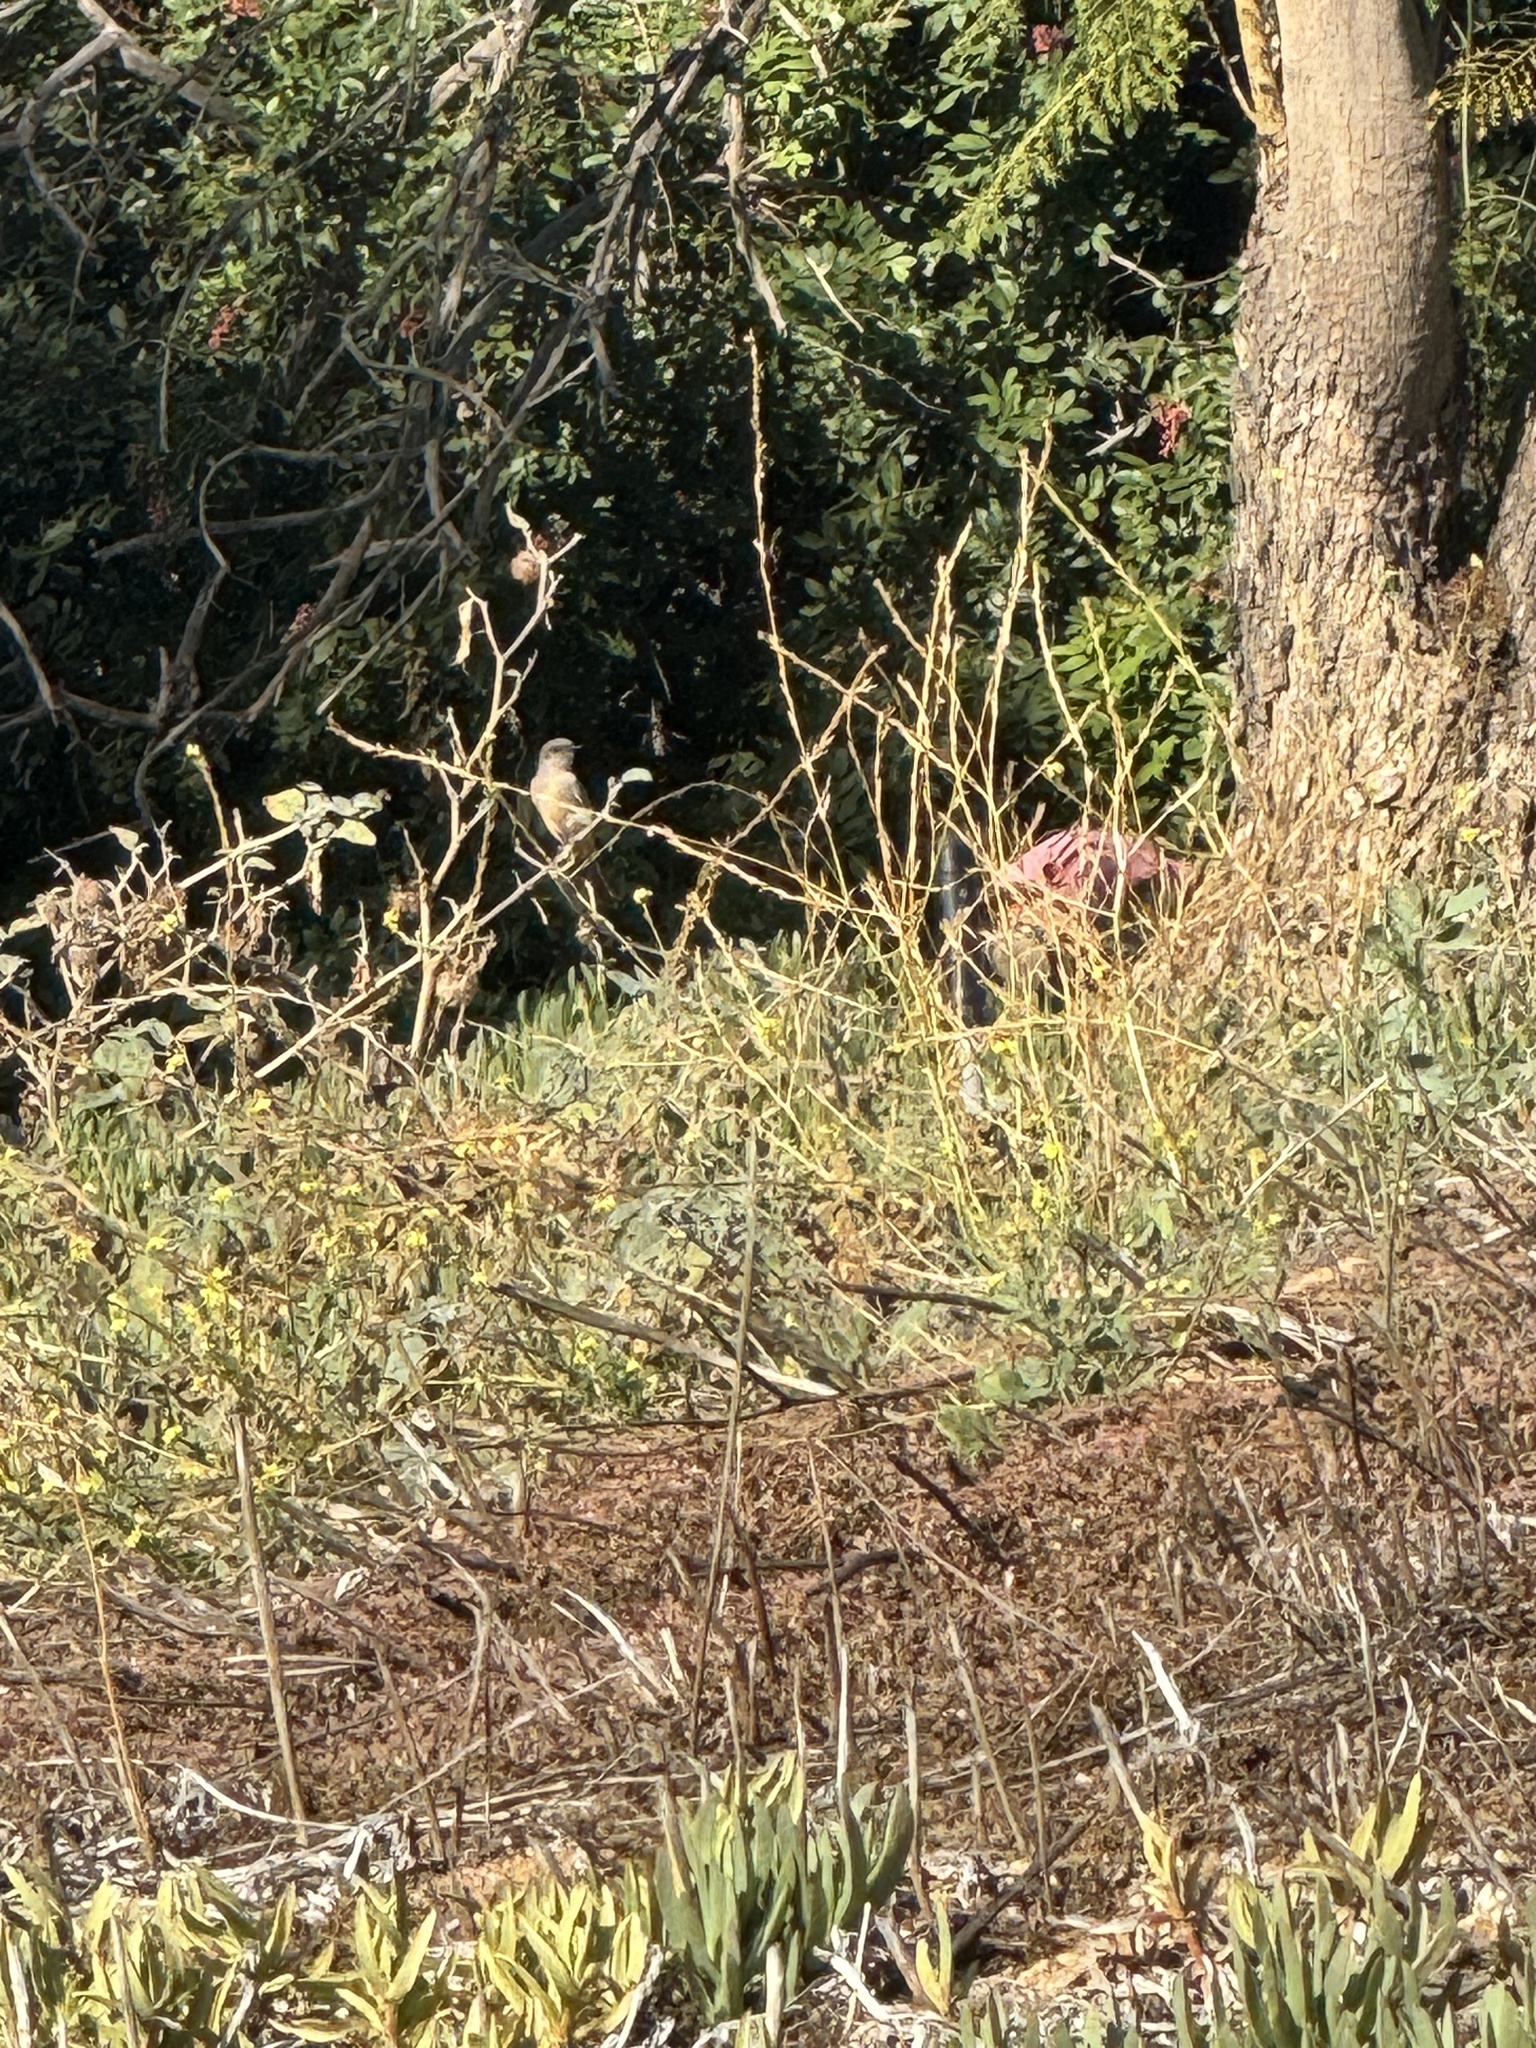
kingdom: Animalia
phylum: Chordata
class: Aves
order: Passeriformes
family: Tyrannidae
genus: Sayornis
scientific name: Sayornis saya
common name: Say's phoebe
